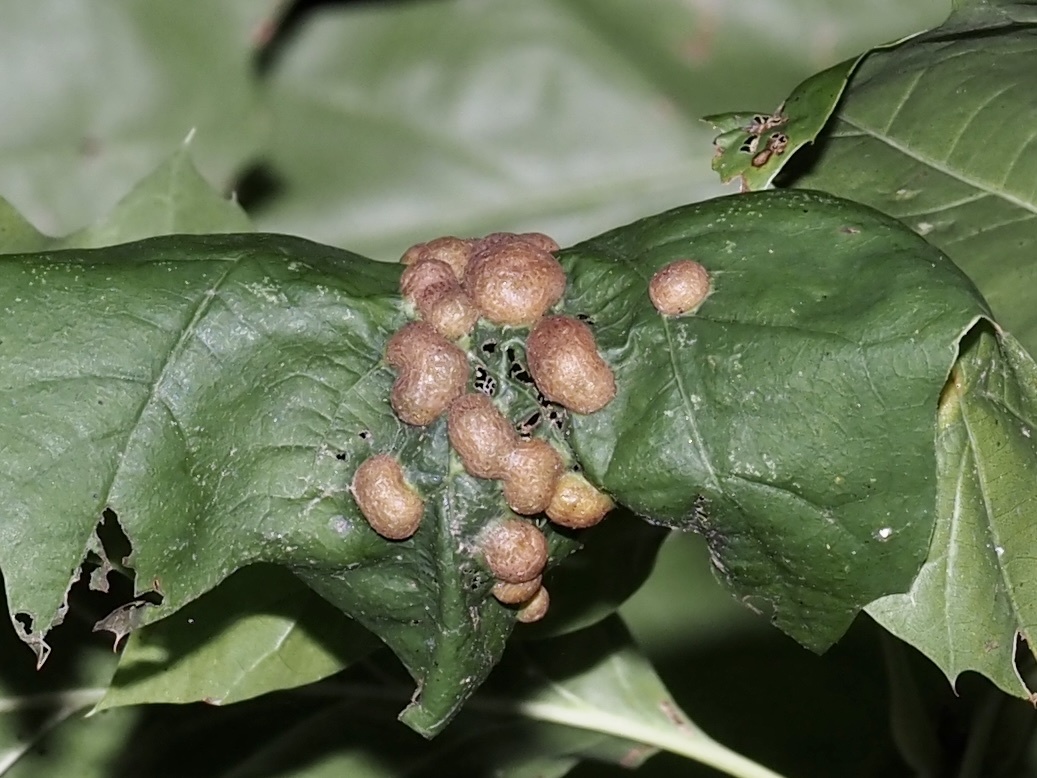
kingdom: Animalia
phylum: Arthropoda
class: Insecta
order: Diptera
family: Cecidomyiidae
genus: Polystepha
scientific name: Polystepha pilulae
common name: Oak leaf gall midge
